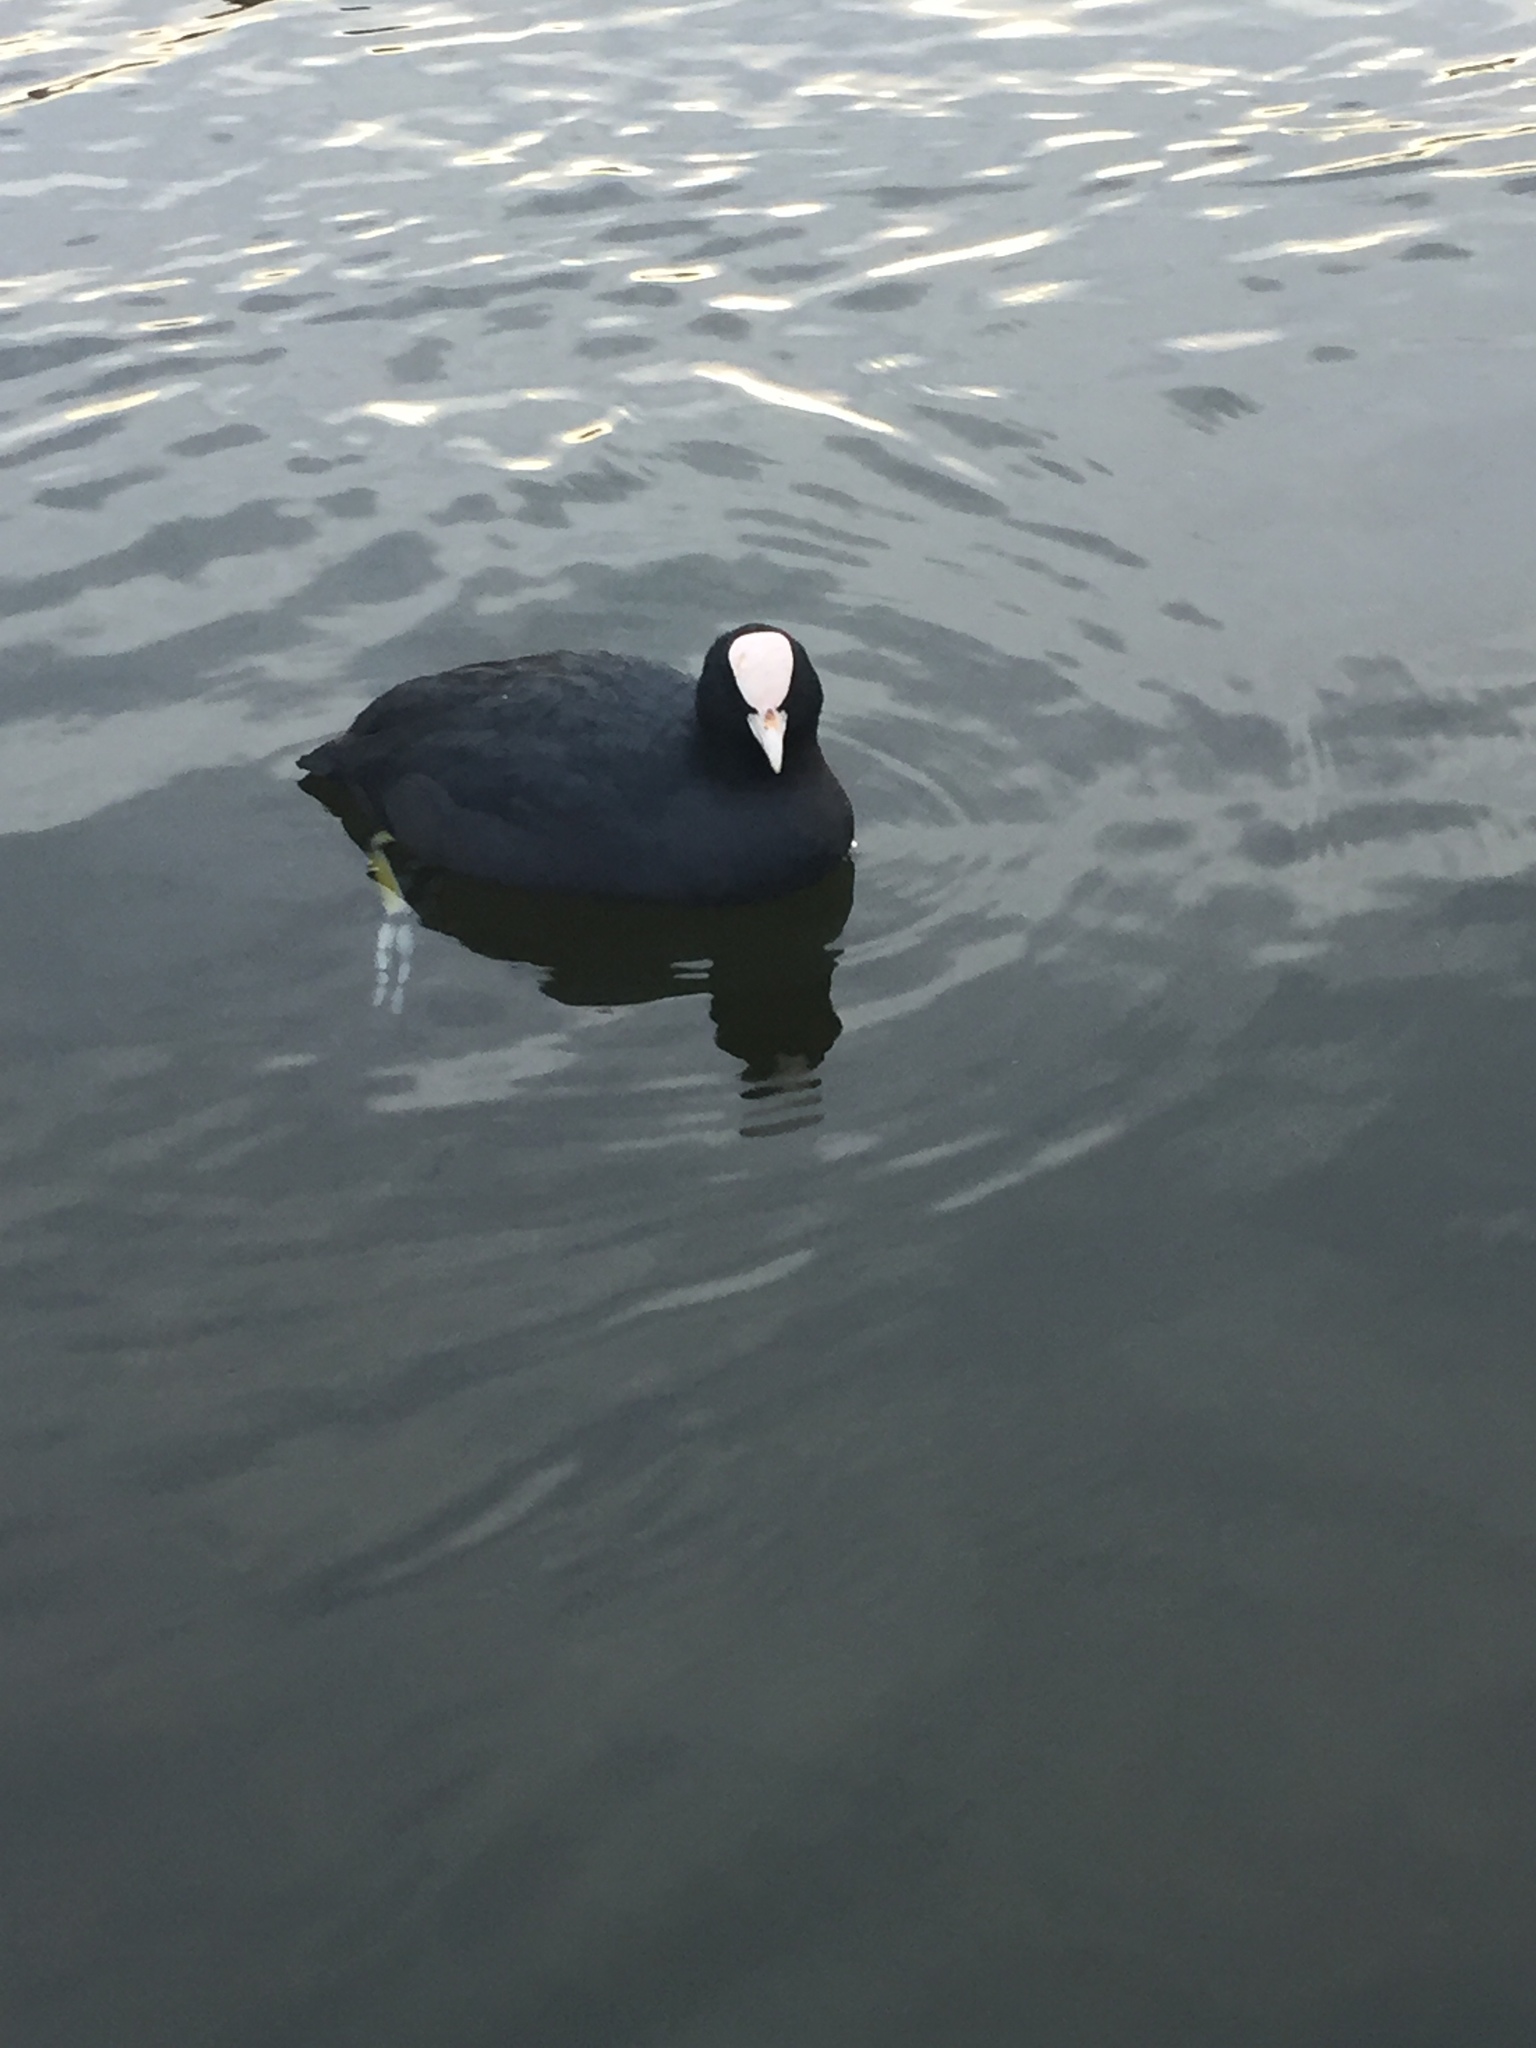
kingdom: Animalia
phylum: Chordata
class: Aves
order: Gruiformes
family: Rallidae
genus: Fulica
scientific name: Fulica atra
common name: Eurasian coot
